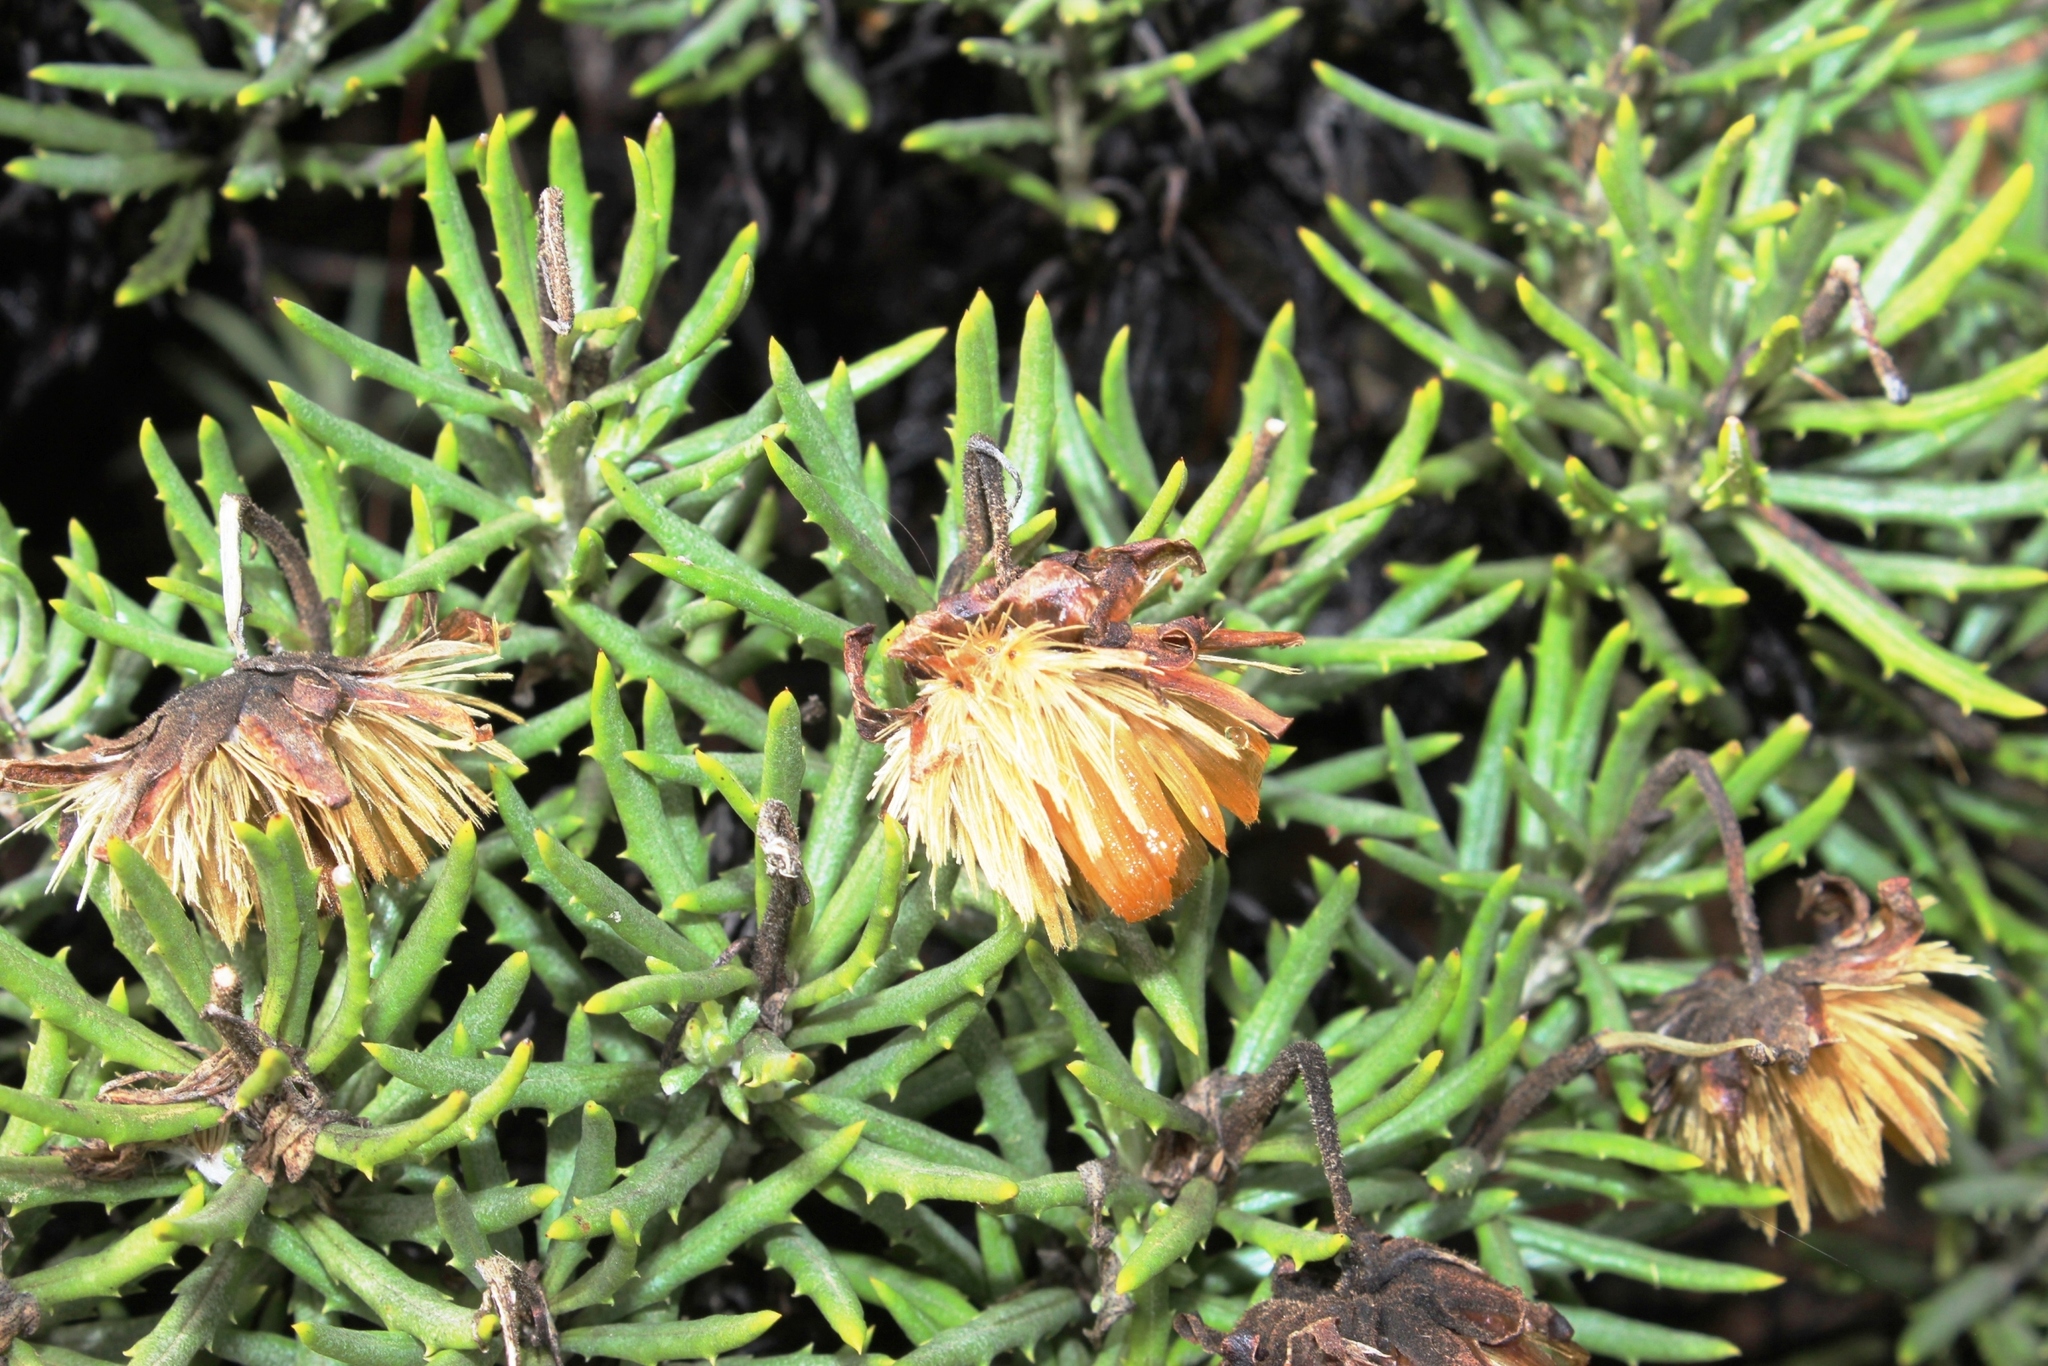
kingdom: Plantae
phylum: Tracheophyta
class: Magnoliopsida
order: Asterales
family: Asteraceae
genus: Heterolepis
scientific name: Heterolepis aliena
